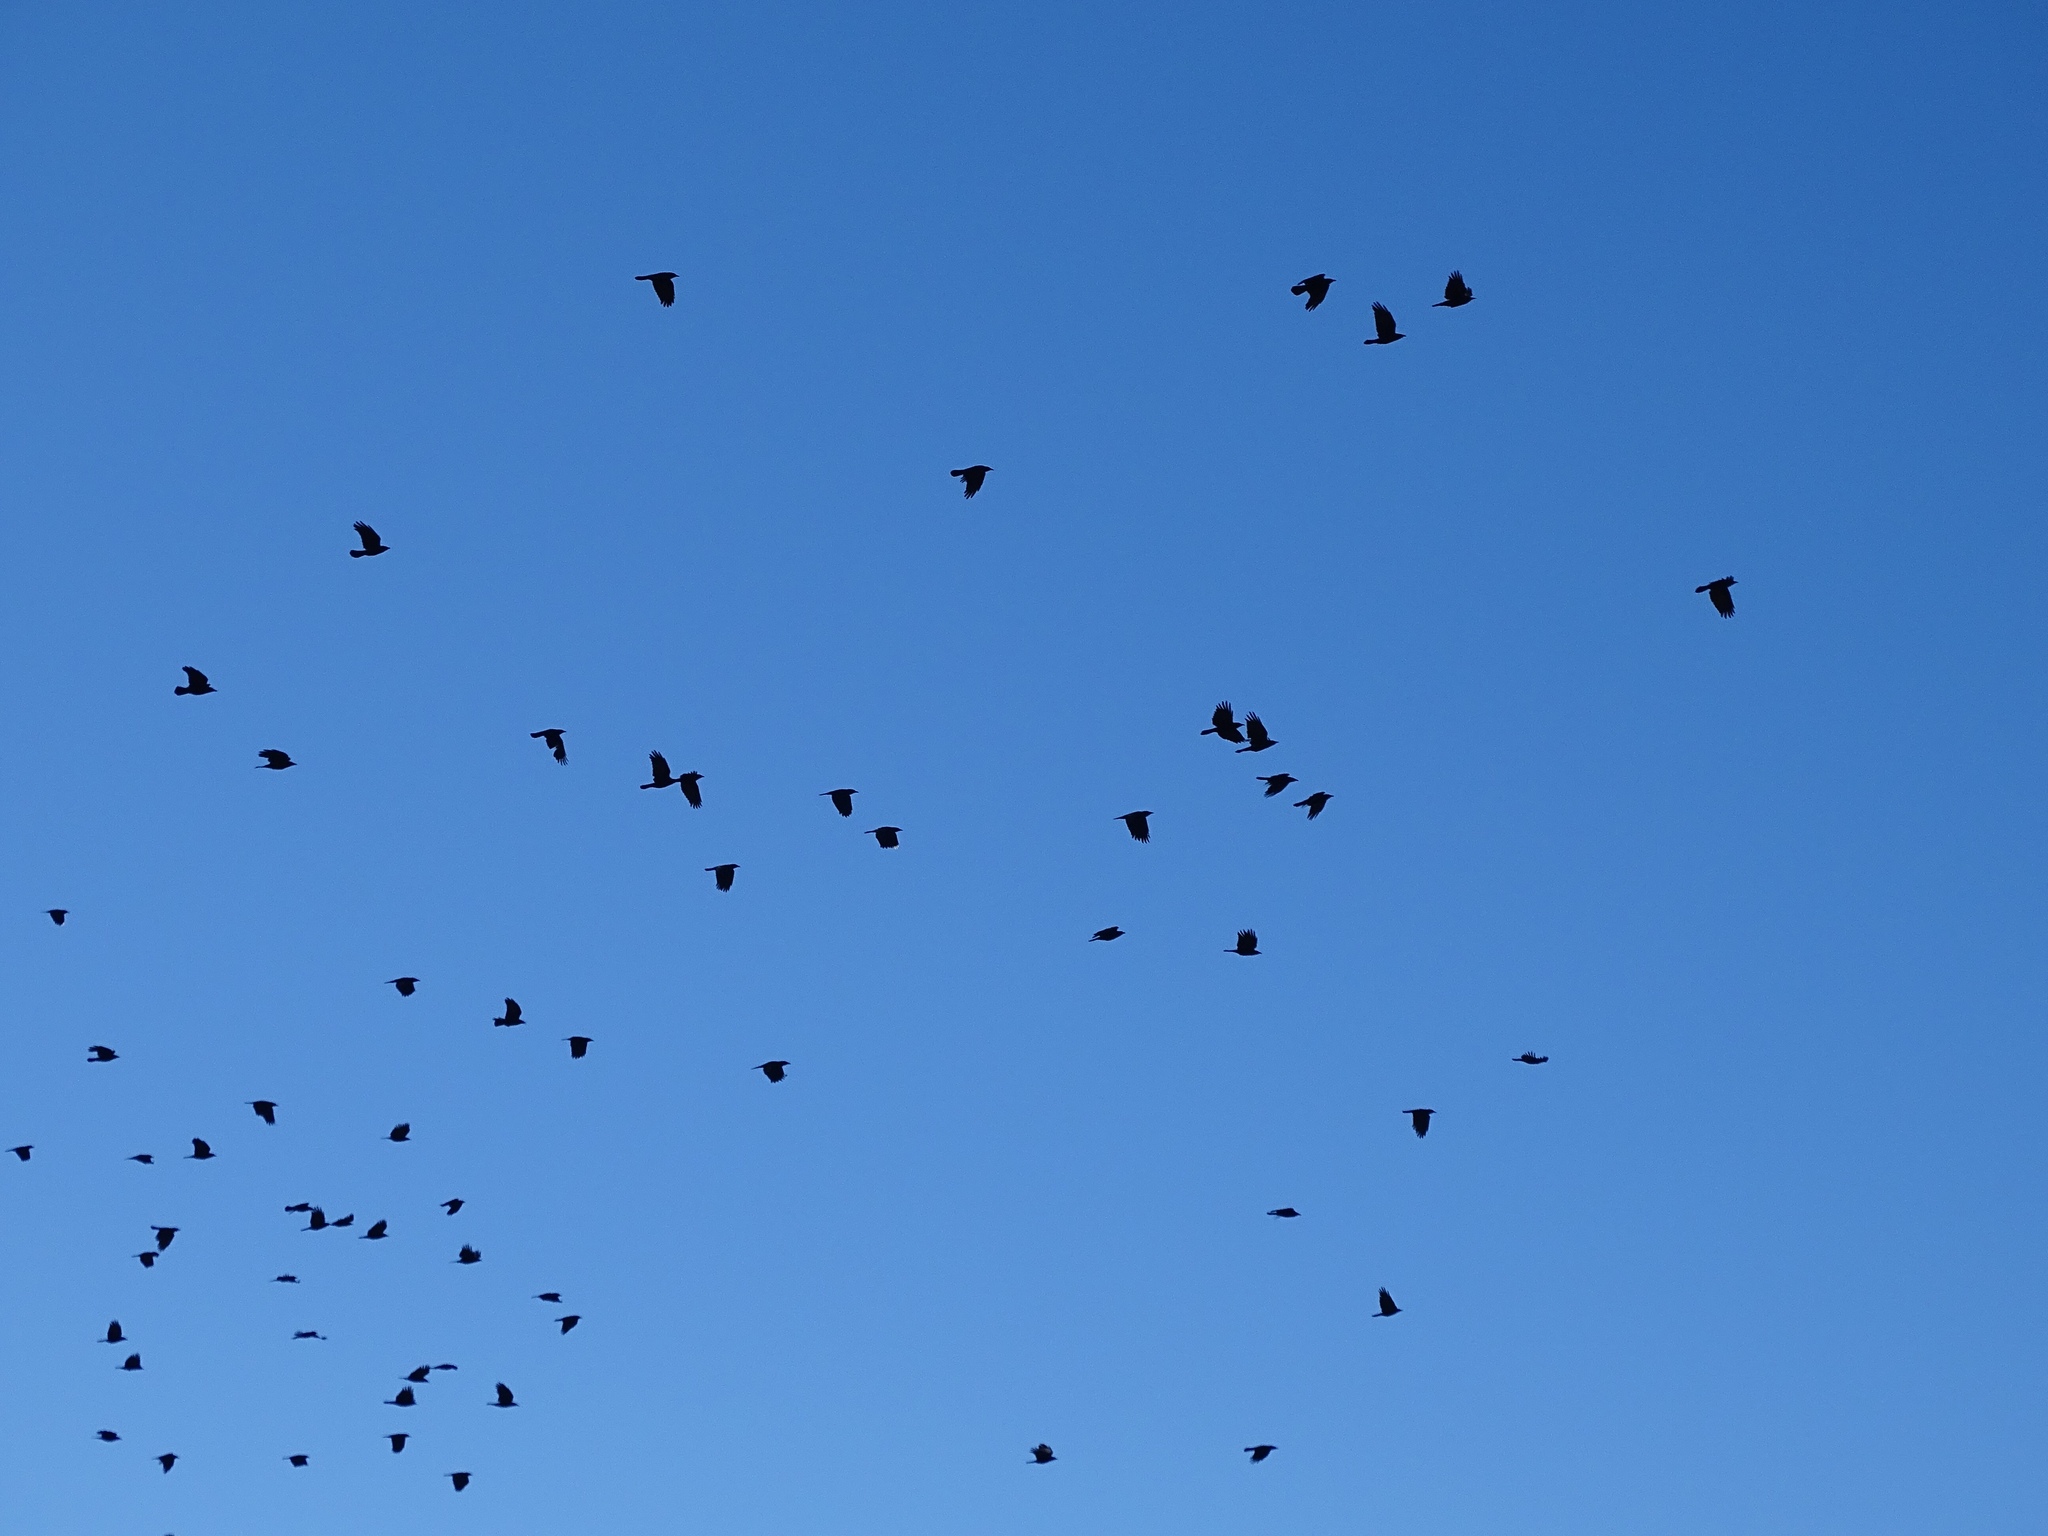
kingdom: Animalia
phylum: Chordata
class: Aves
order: Passeriformes
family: Corvidae
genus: Corvus
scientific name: Corvus corax
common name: Common raven
